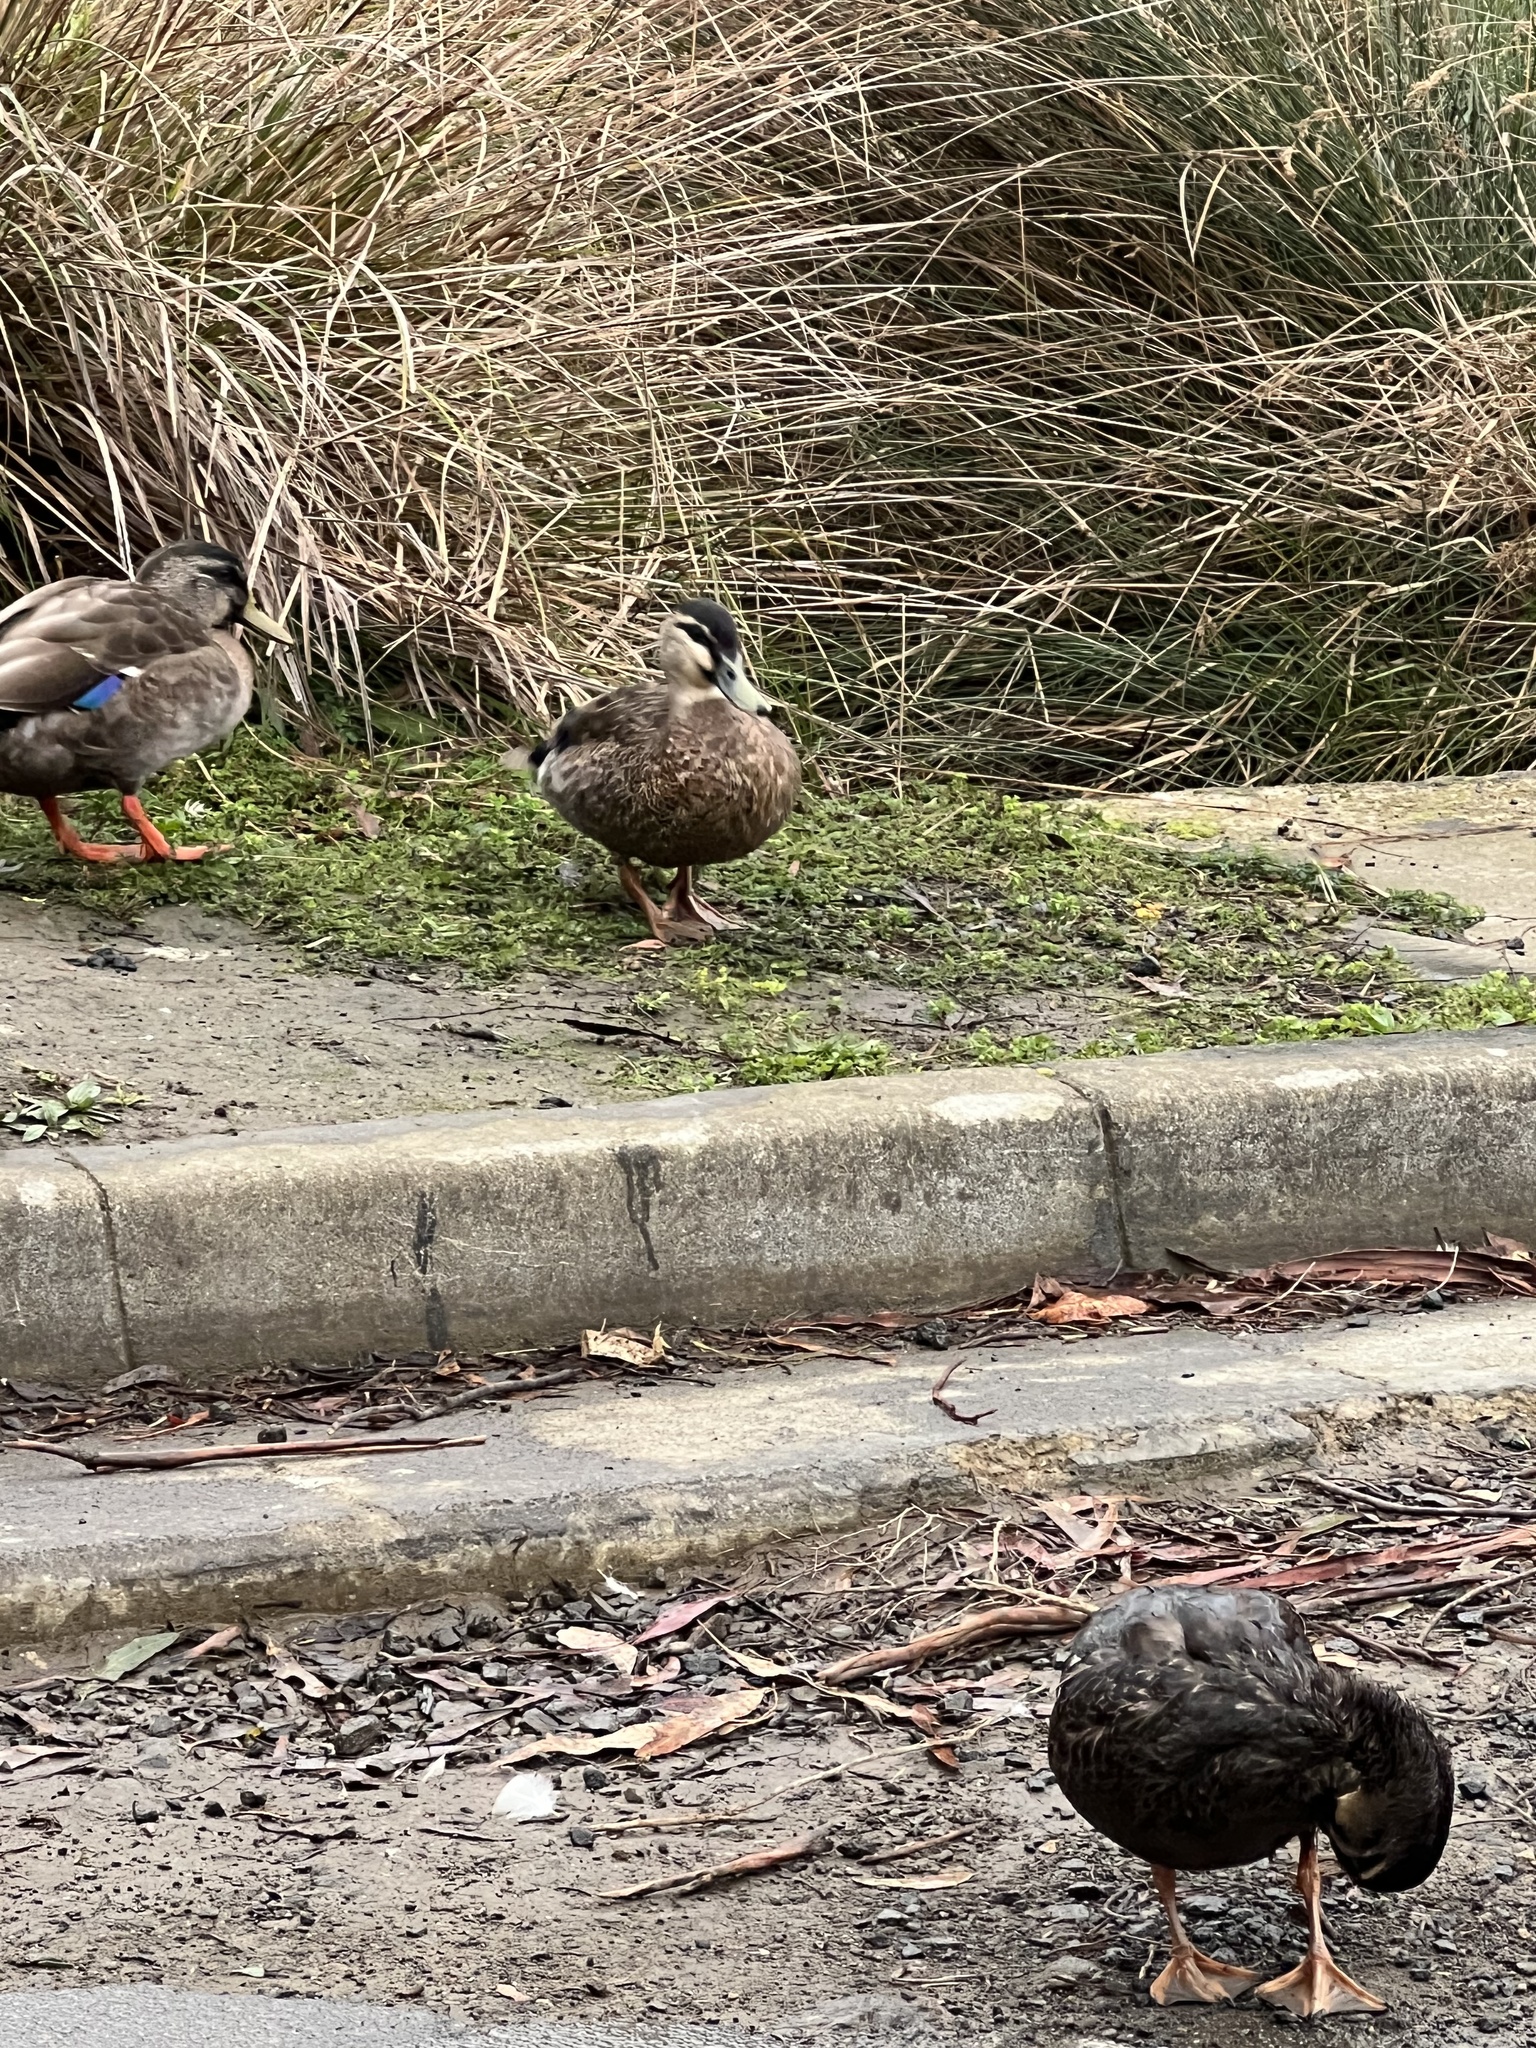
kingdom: Animalia
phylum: Chordata
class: Aves
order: Anseriformes
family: Anatidae
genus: Anas
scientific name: Anas
